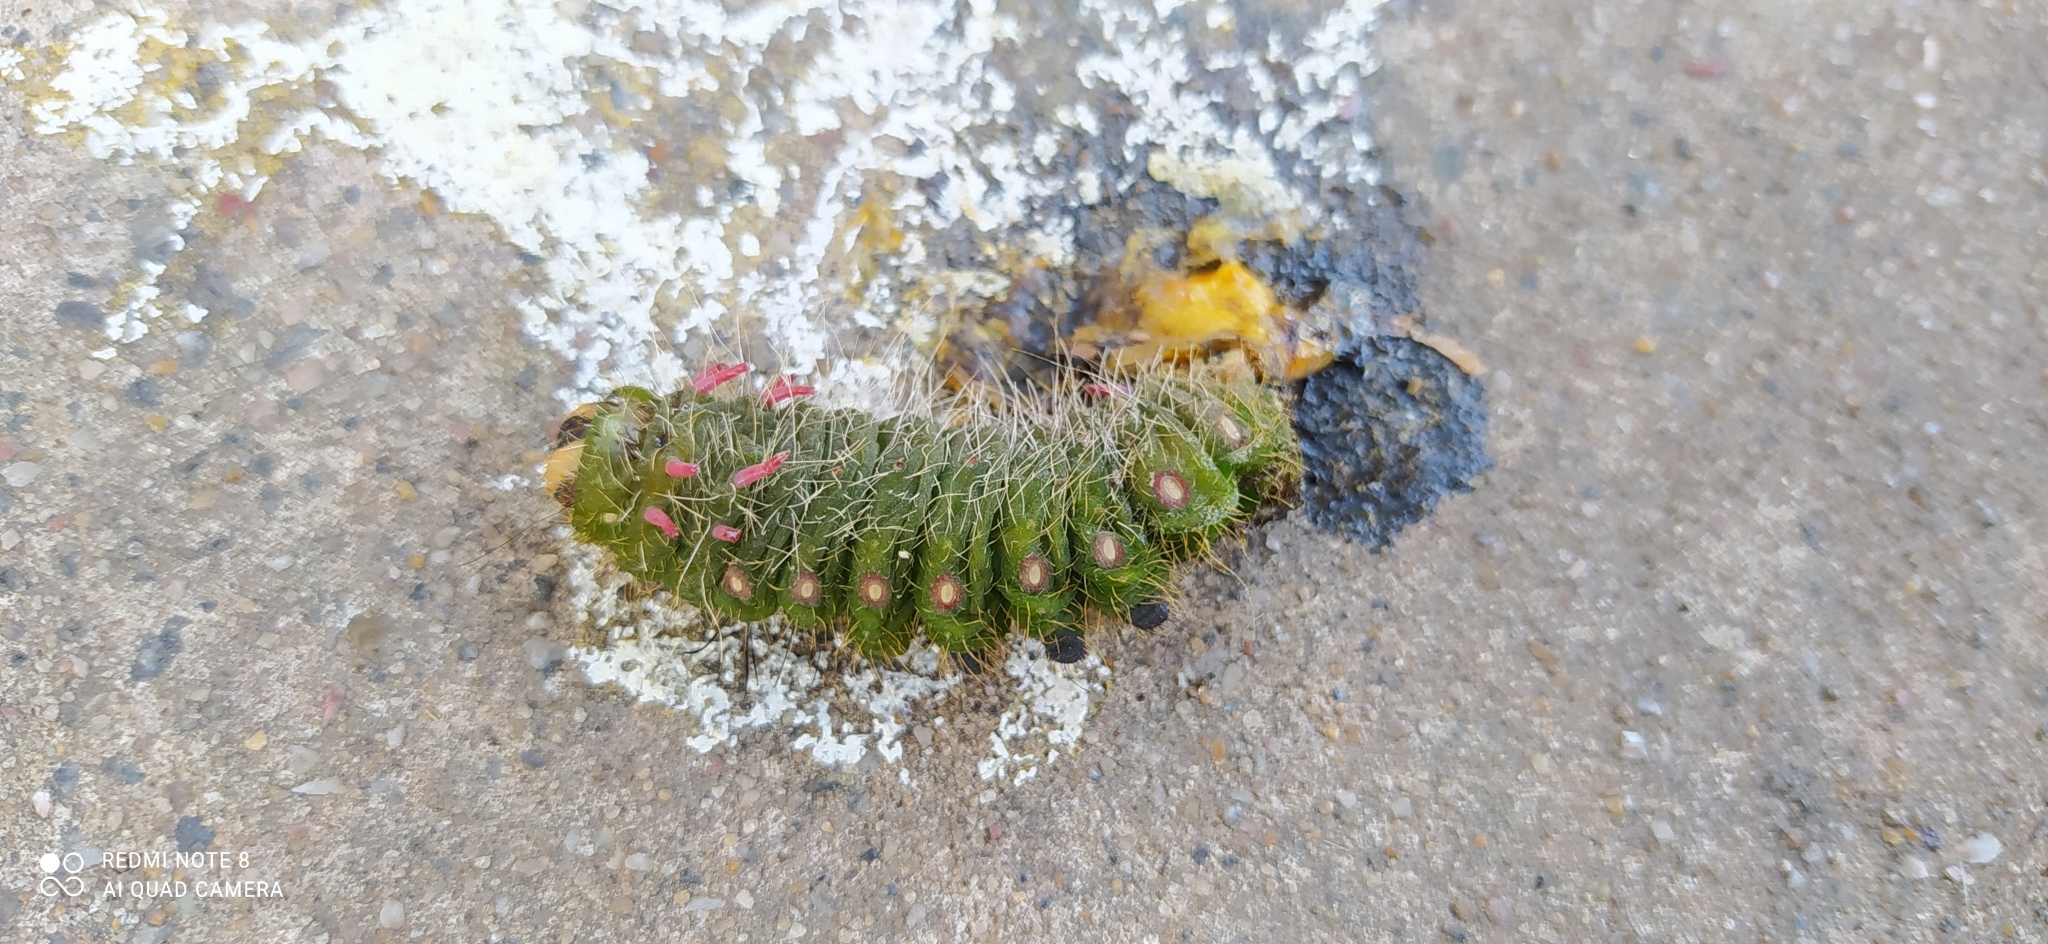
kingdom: Animalia
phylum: Arthropoda
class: Insecta
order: Lepidoptera
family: Saturniidae
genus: Eacles
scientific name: Eacles imperialis
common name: Imperial moth
